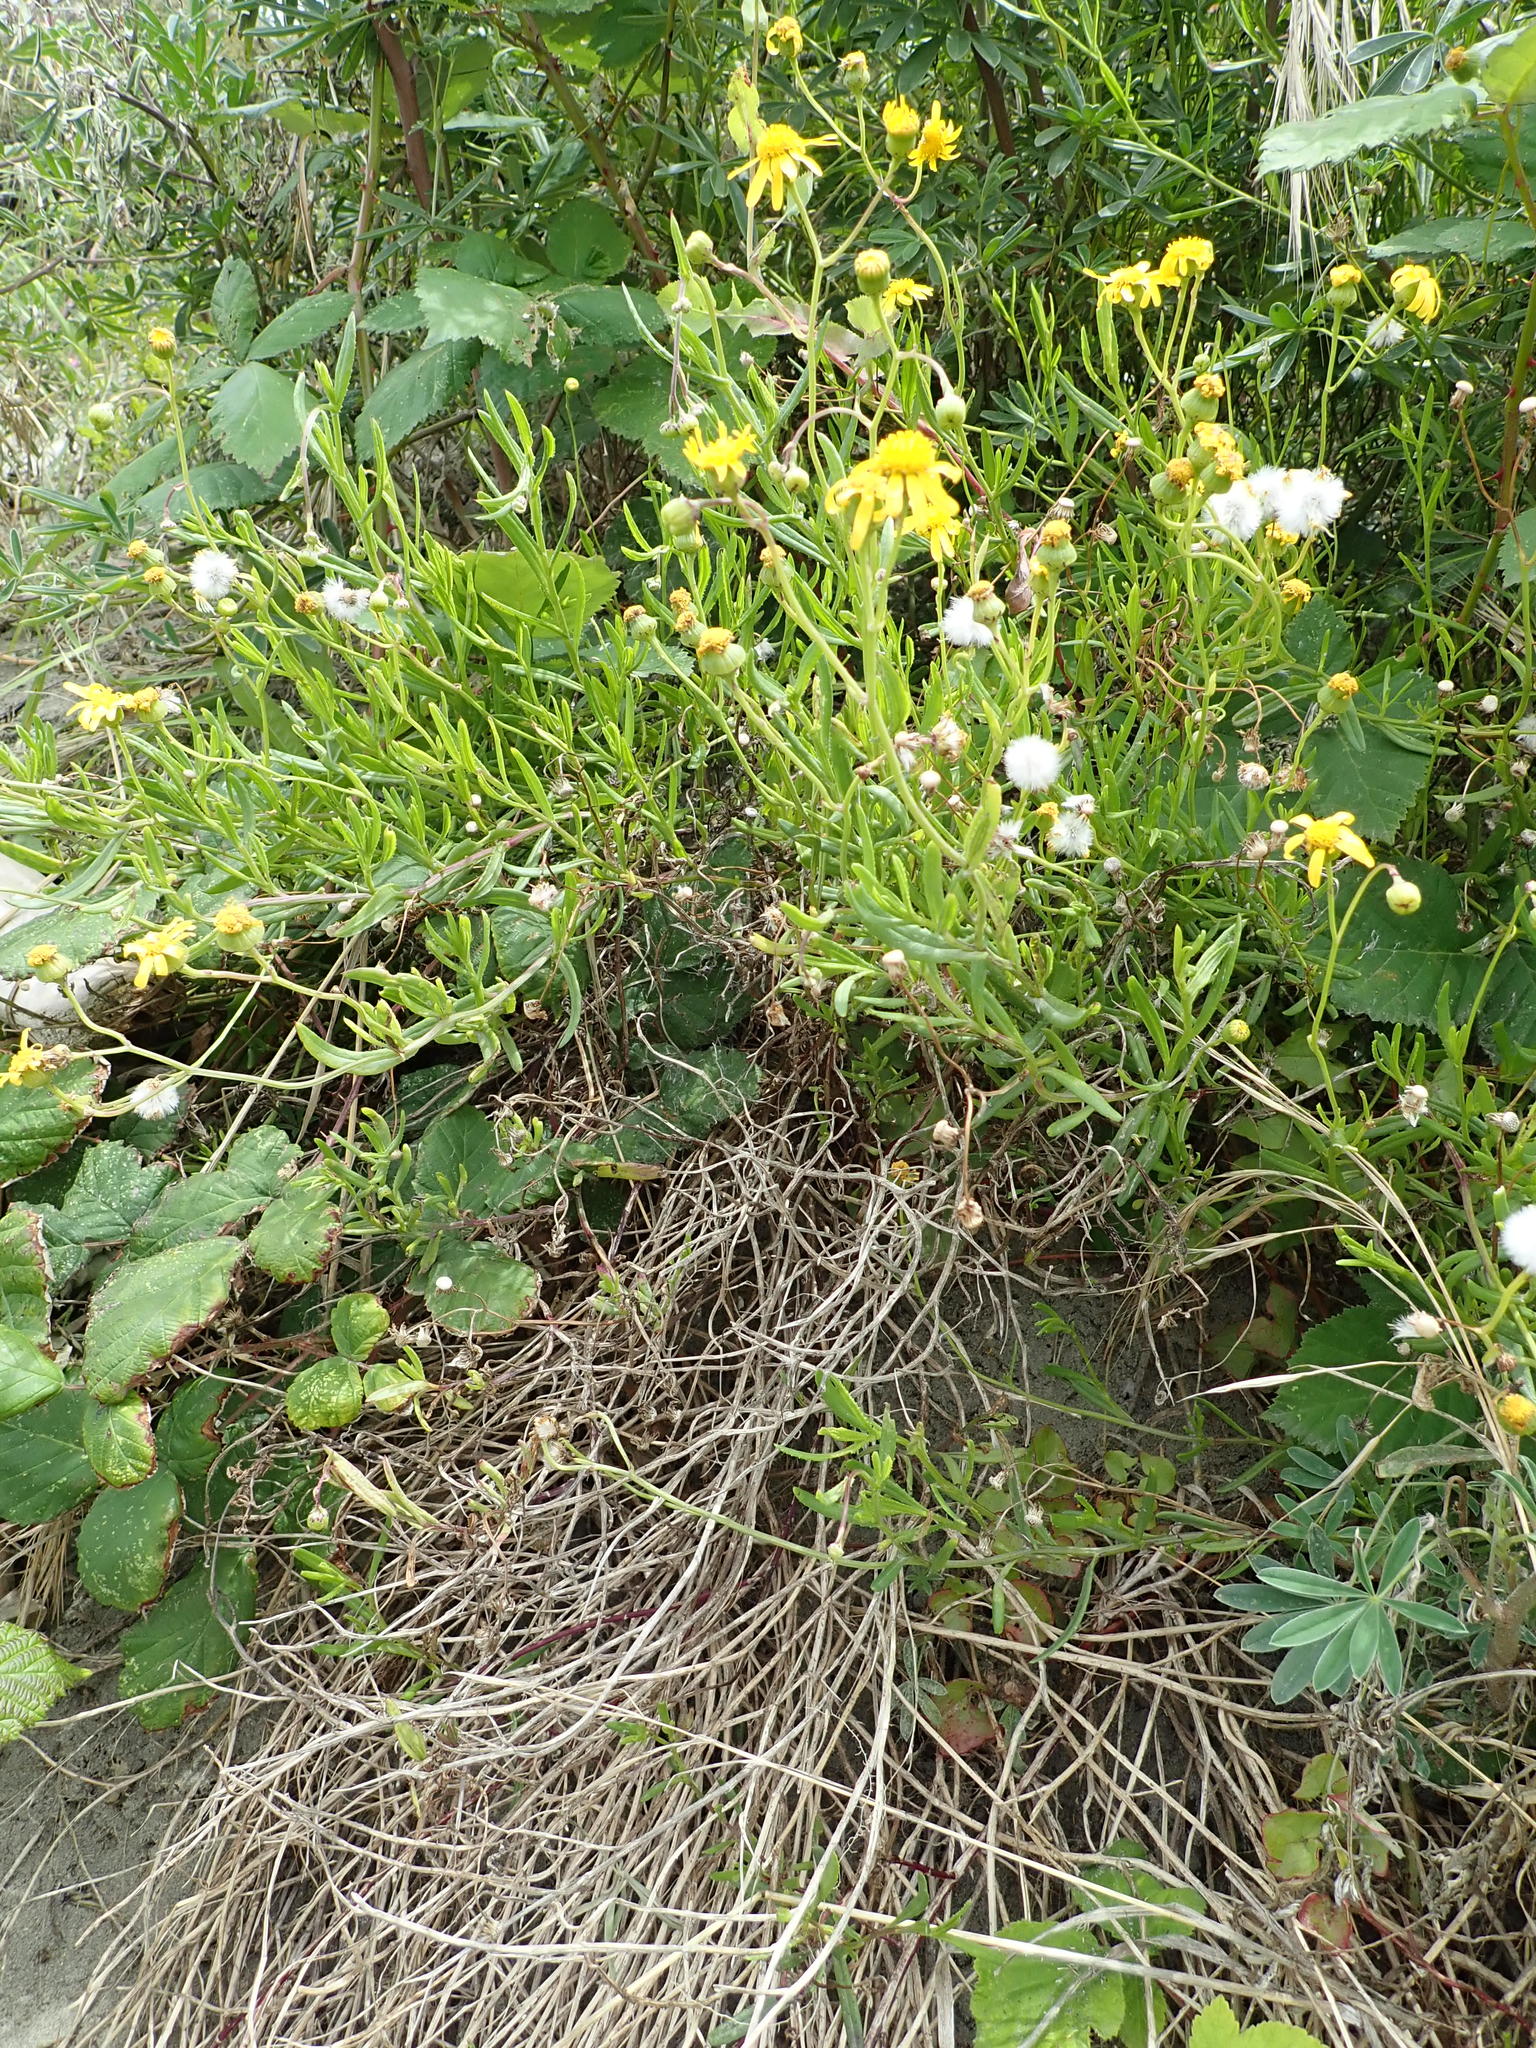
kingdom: Plantae
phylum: Tracheophyta
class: Magnoliopsida
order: Asterales
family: Asteraceae
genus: Senecio
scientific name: Senecio skirrhodon
